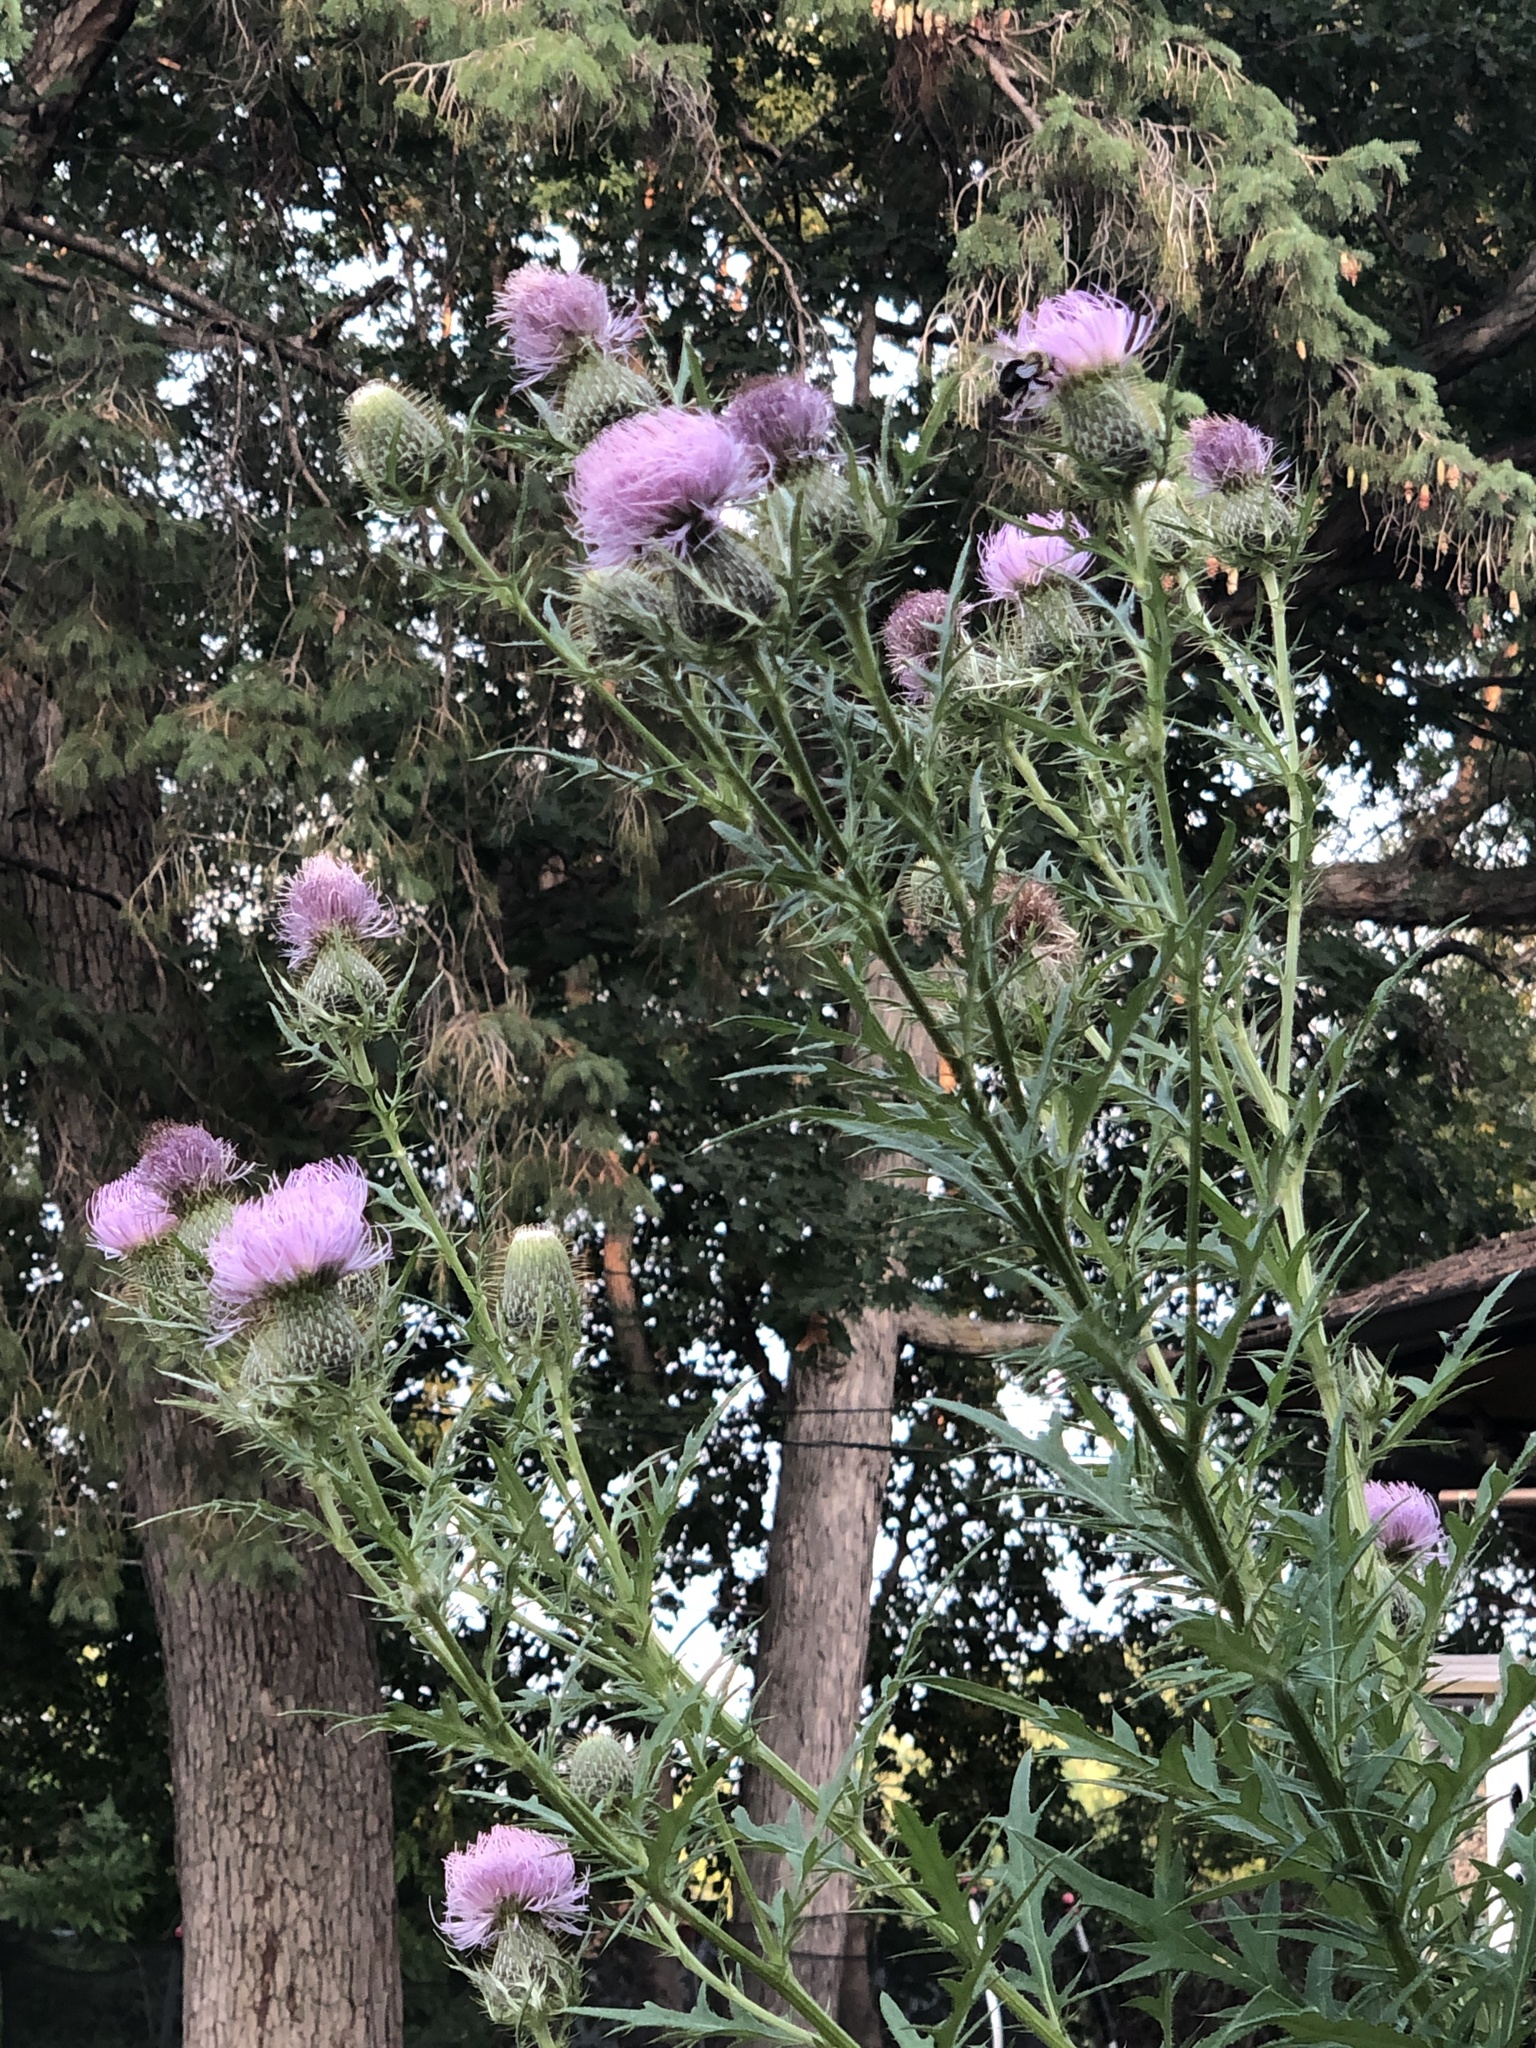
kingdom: Plantae
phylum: Tracheophyta
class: Magnoliopsida
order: Asterales
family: Asteraceae
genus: Cirsium
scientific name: Cirsium discolor
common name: Field thistle
